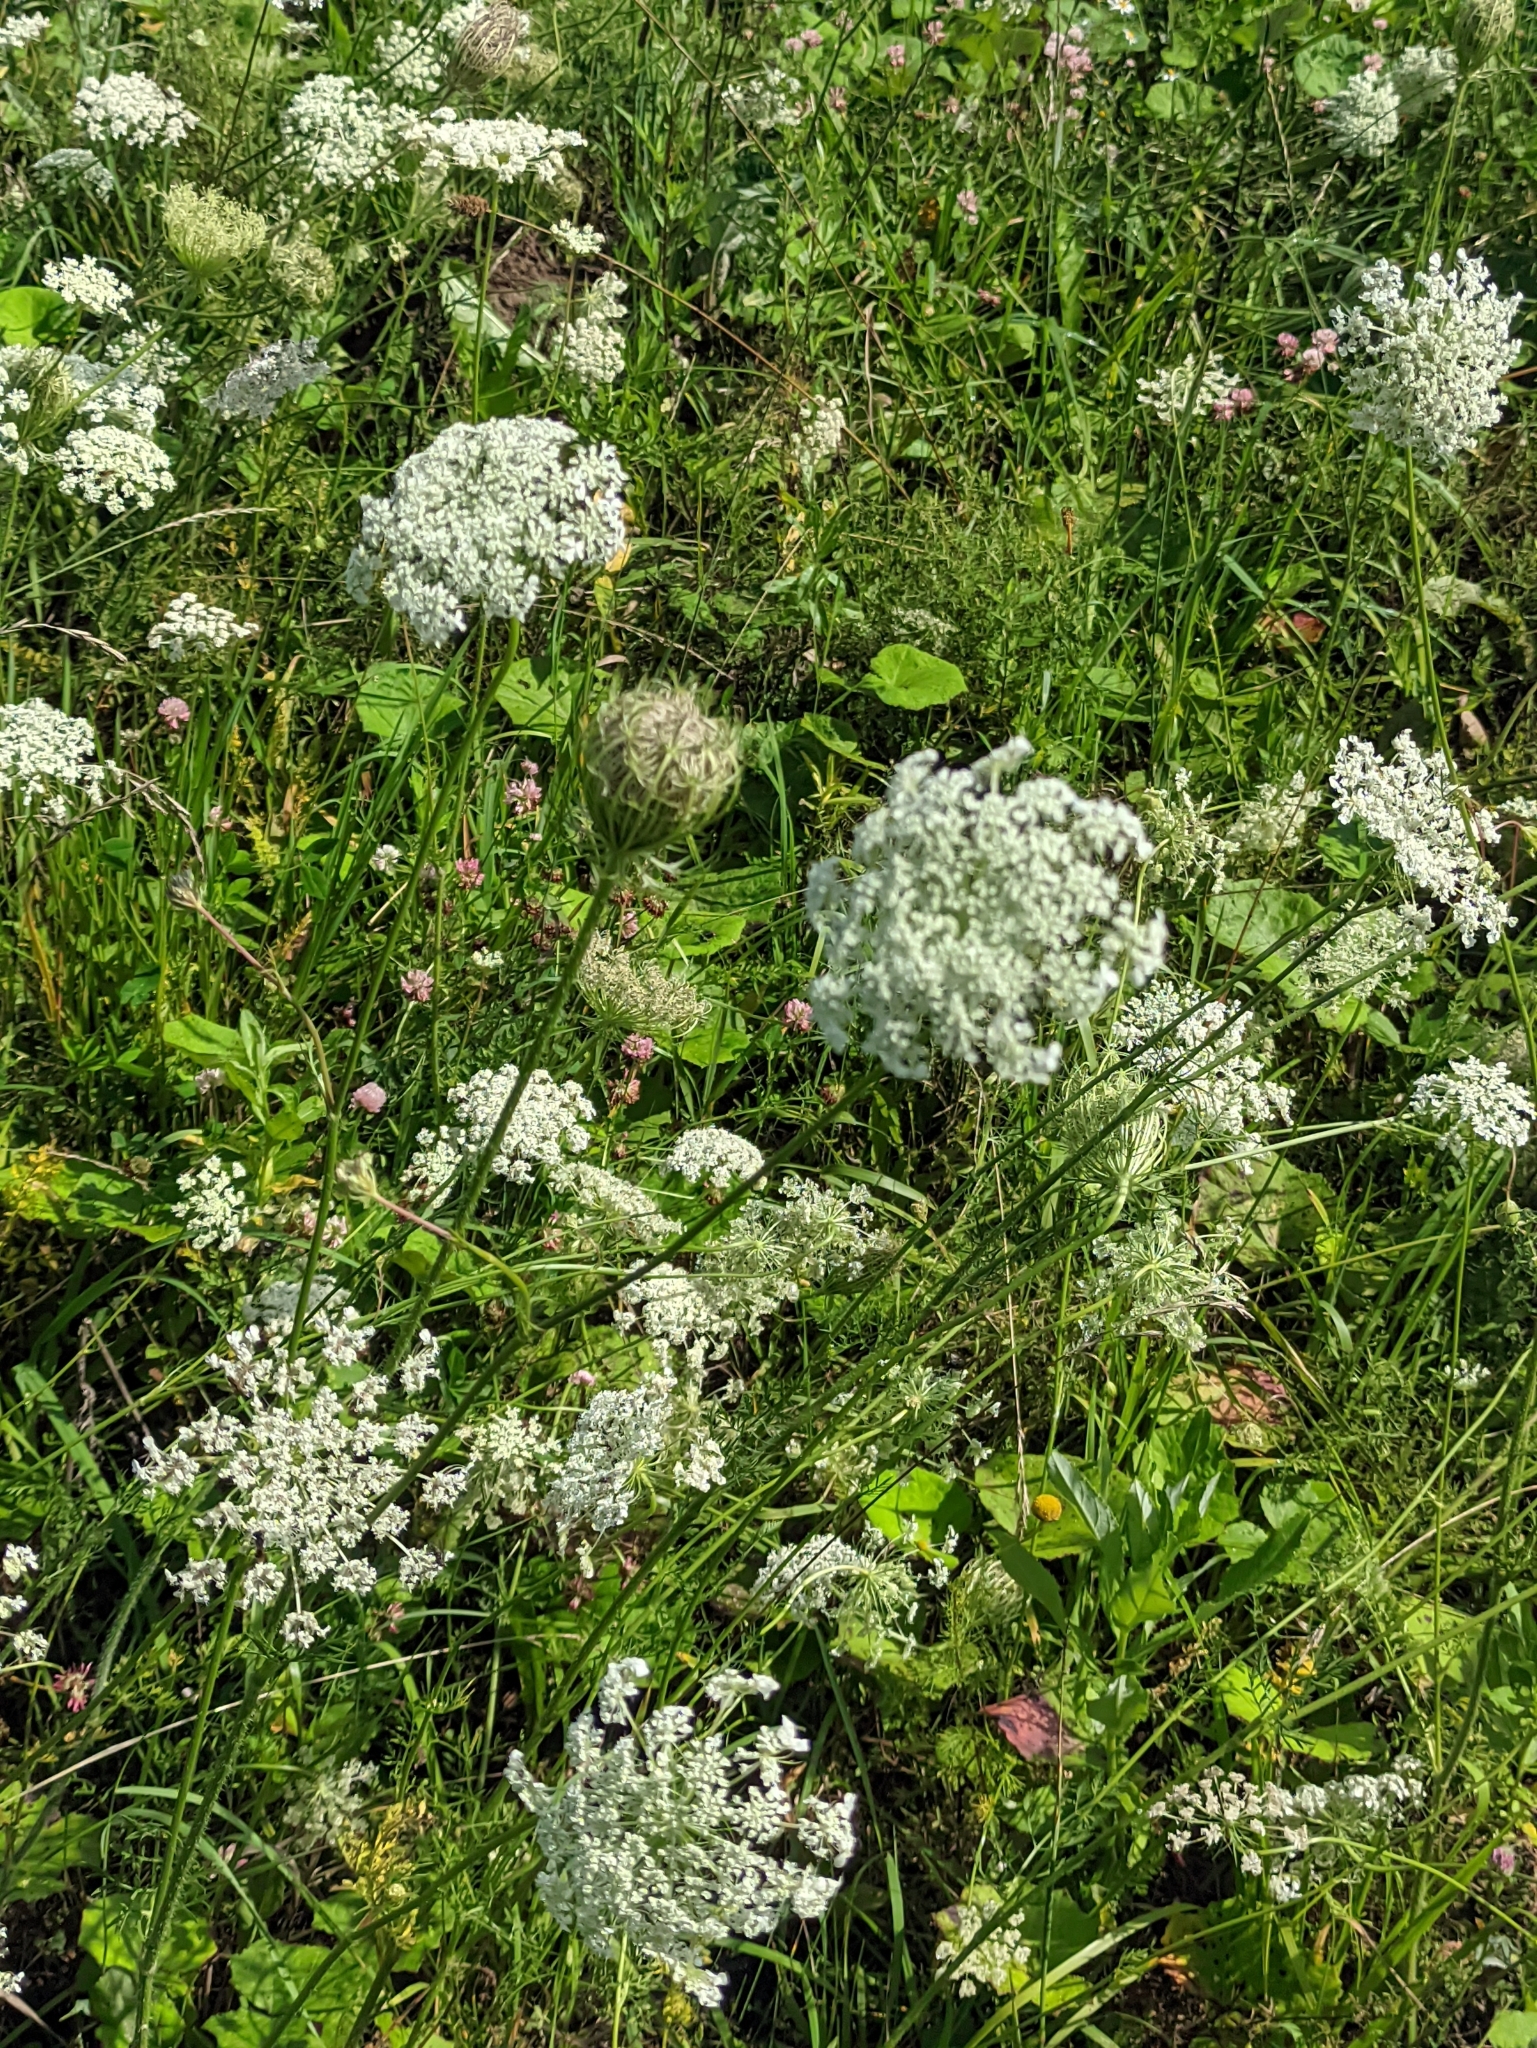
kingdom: Plantae
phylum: Tracheophyta
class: Magnoliopsida
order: Apiales
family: Apiaceae
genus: Daucus
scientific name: Daucus carota
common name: Wild carrot
